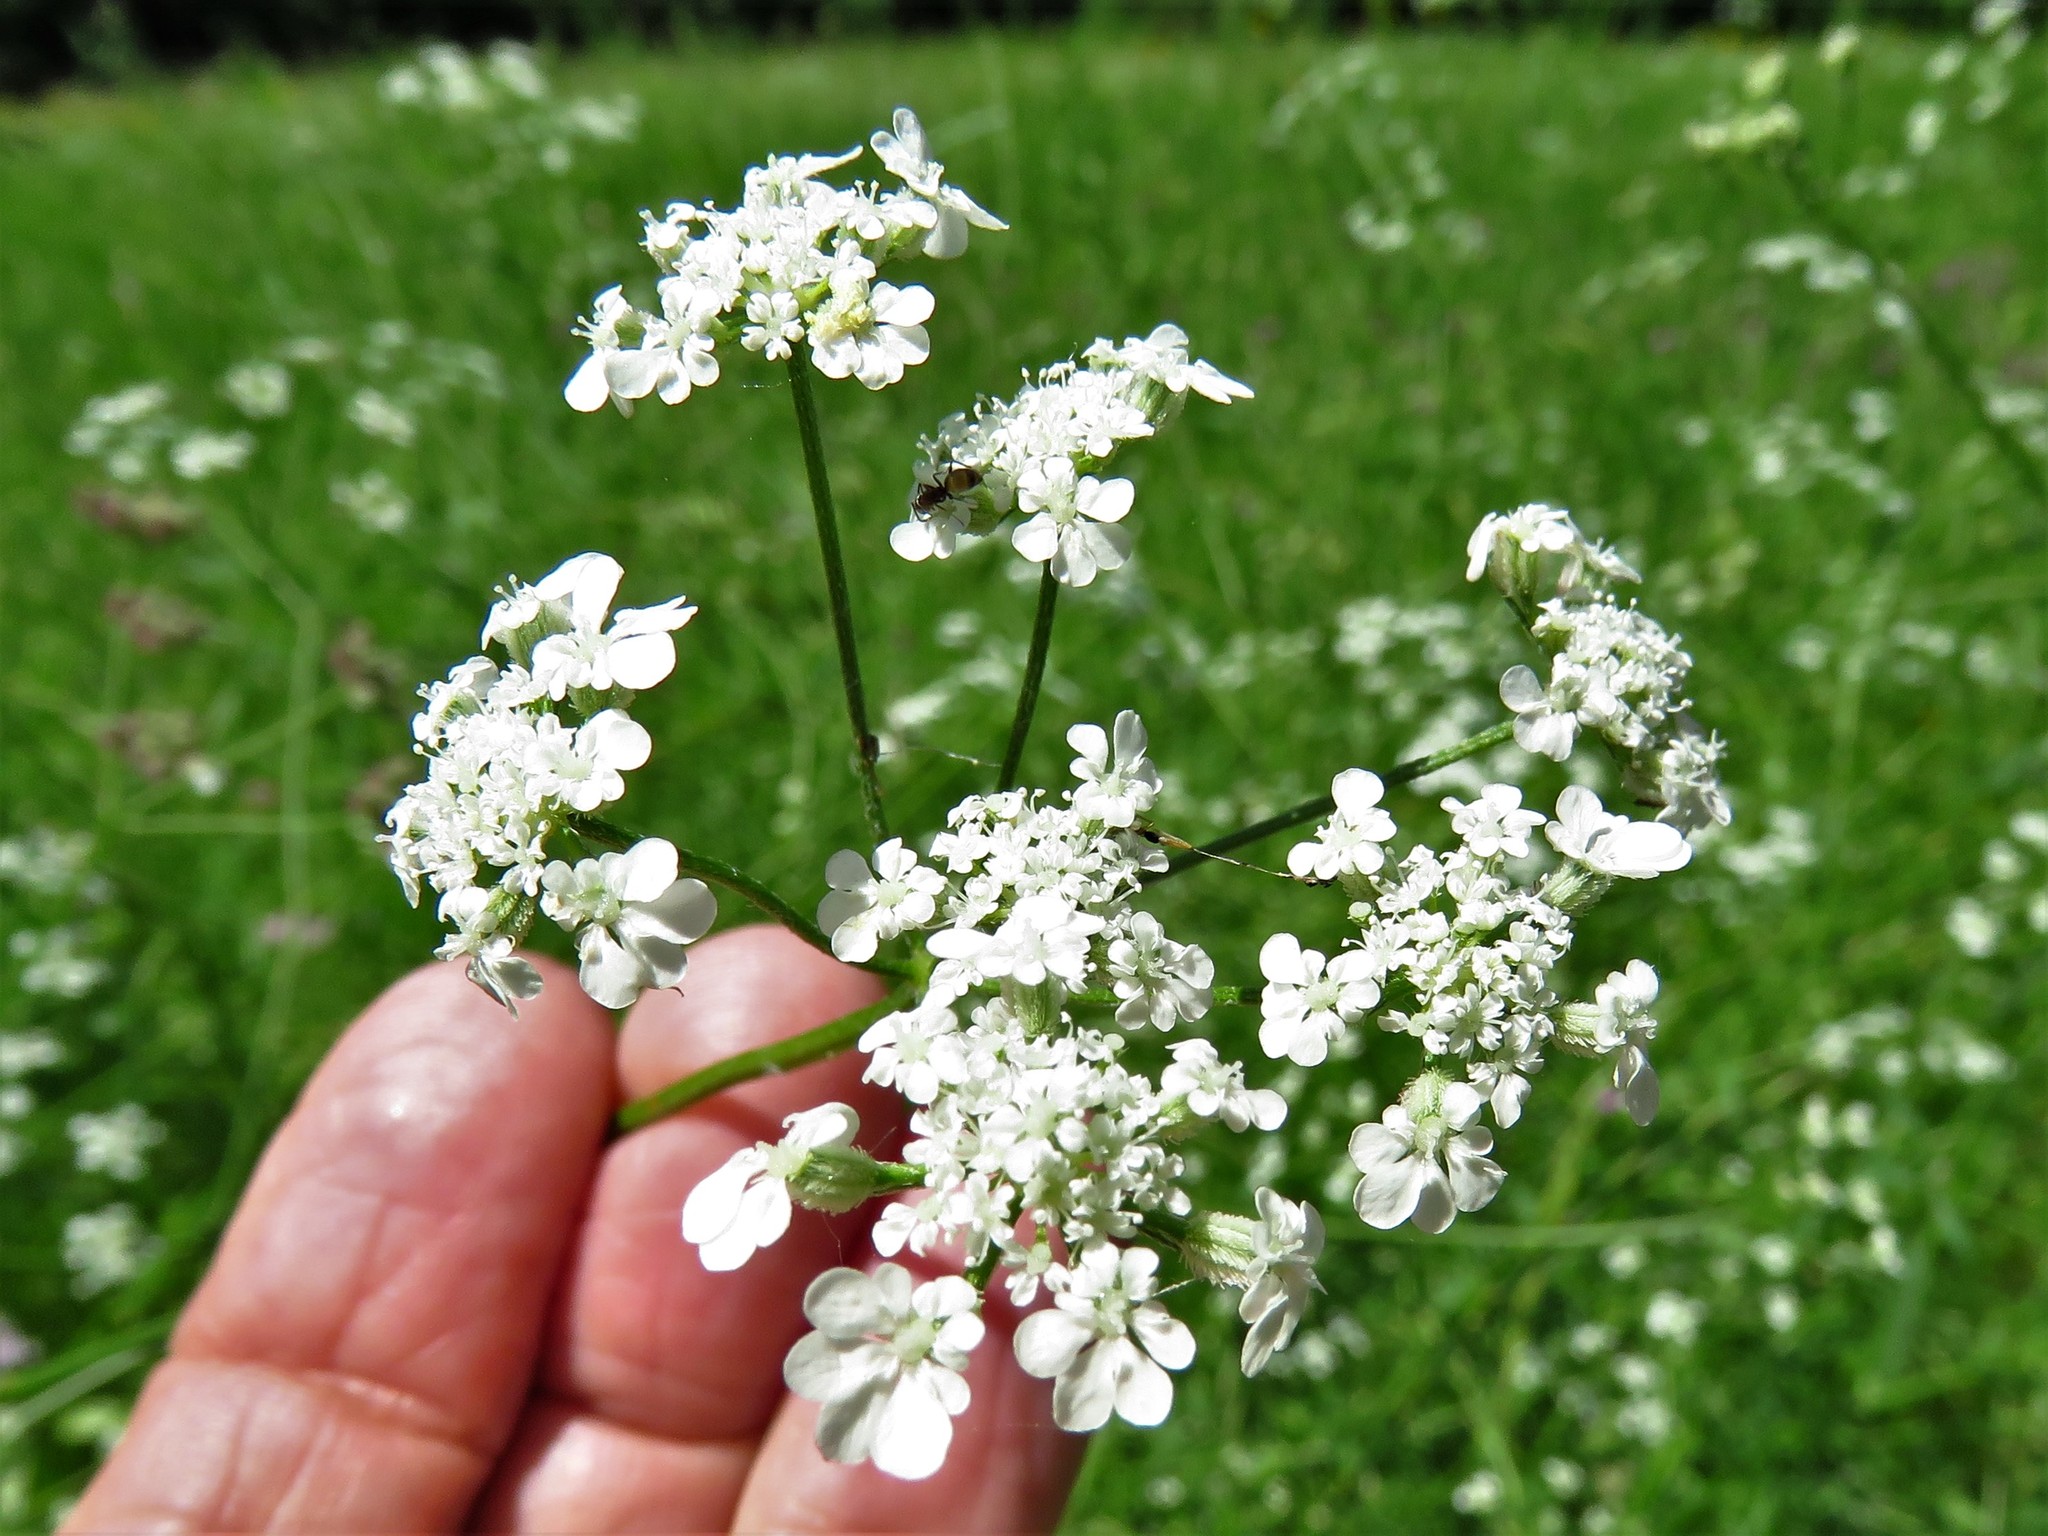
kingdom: Plantae
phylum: Tracheophyta
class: Magnoliopsida
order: Apiales
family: Apiaceae
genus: Torilis
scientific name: Torilis arvensis
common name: Spreading hedge-parsley
